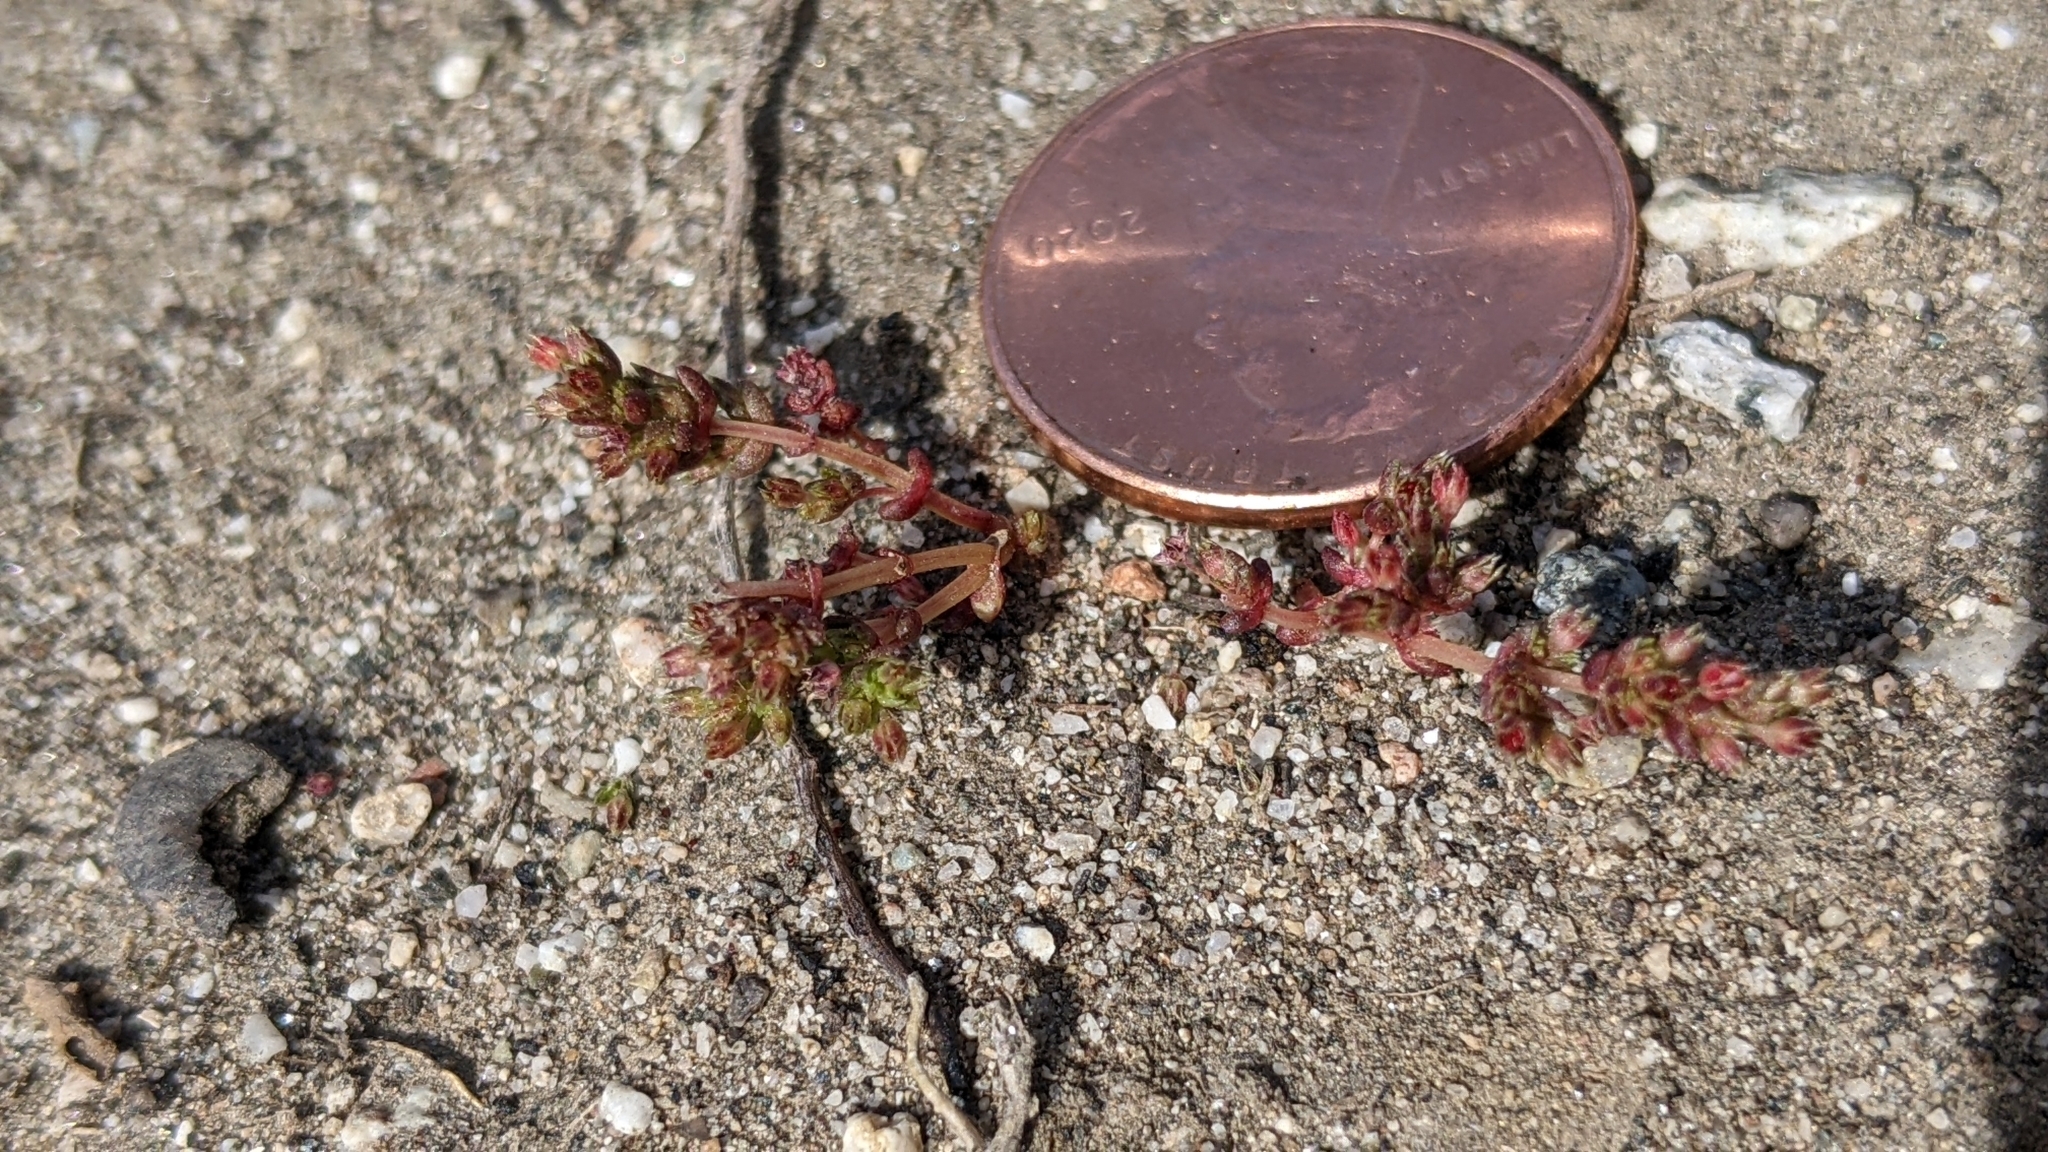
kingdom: Plantae
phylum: Tracheophyta
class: Magnoliopsida
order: Saxifragales
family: Crassulaceae
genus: Crassula
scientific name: Crassula connata
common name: Erect pygmyweed
